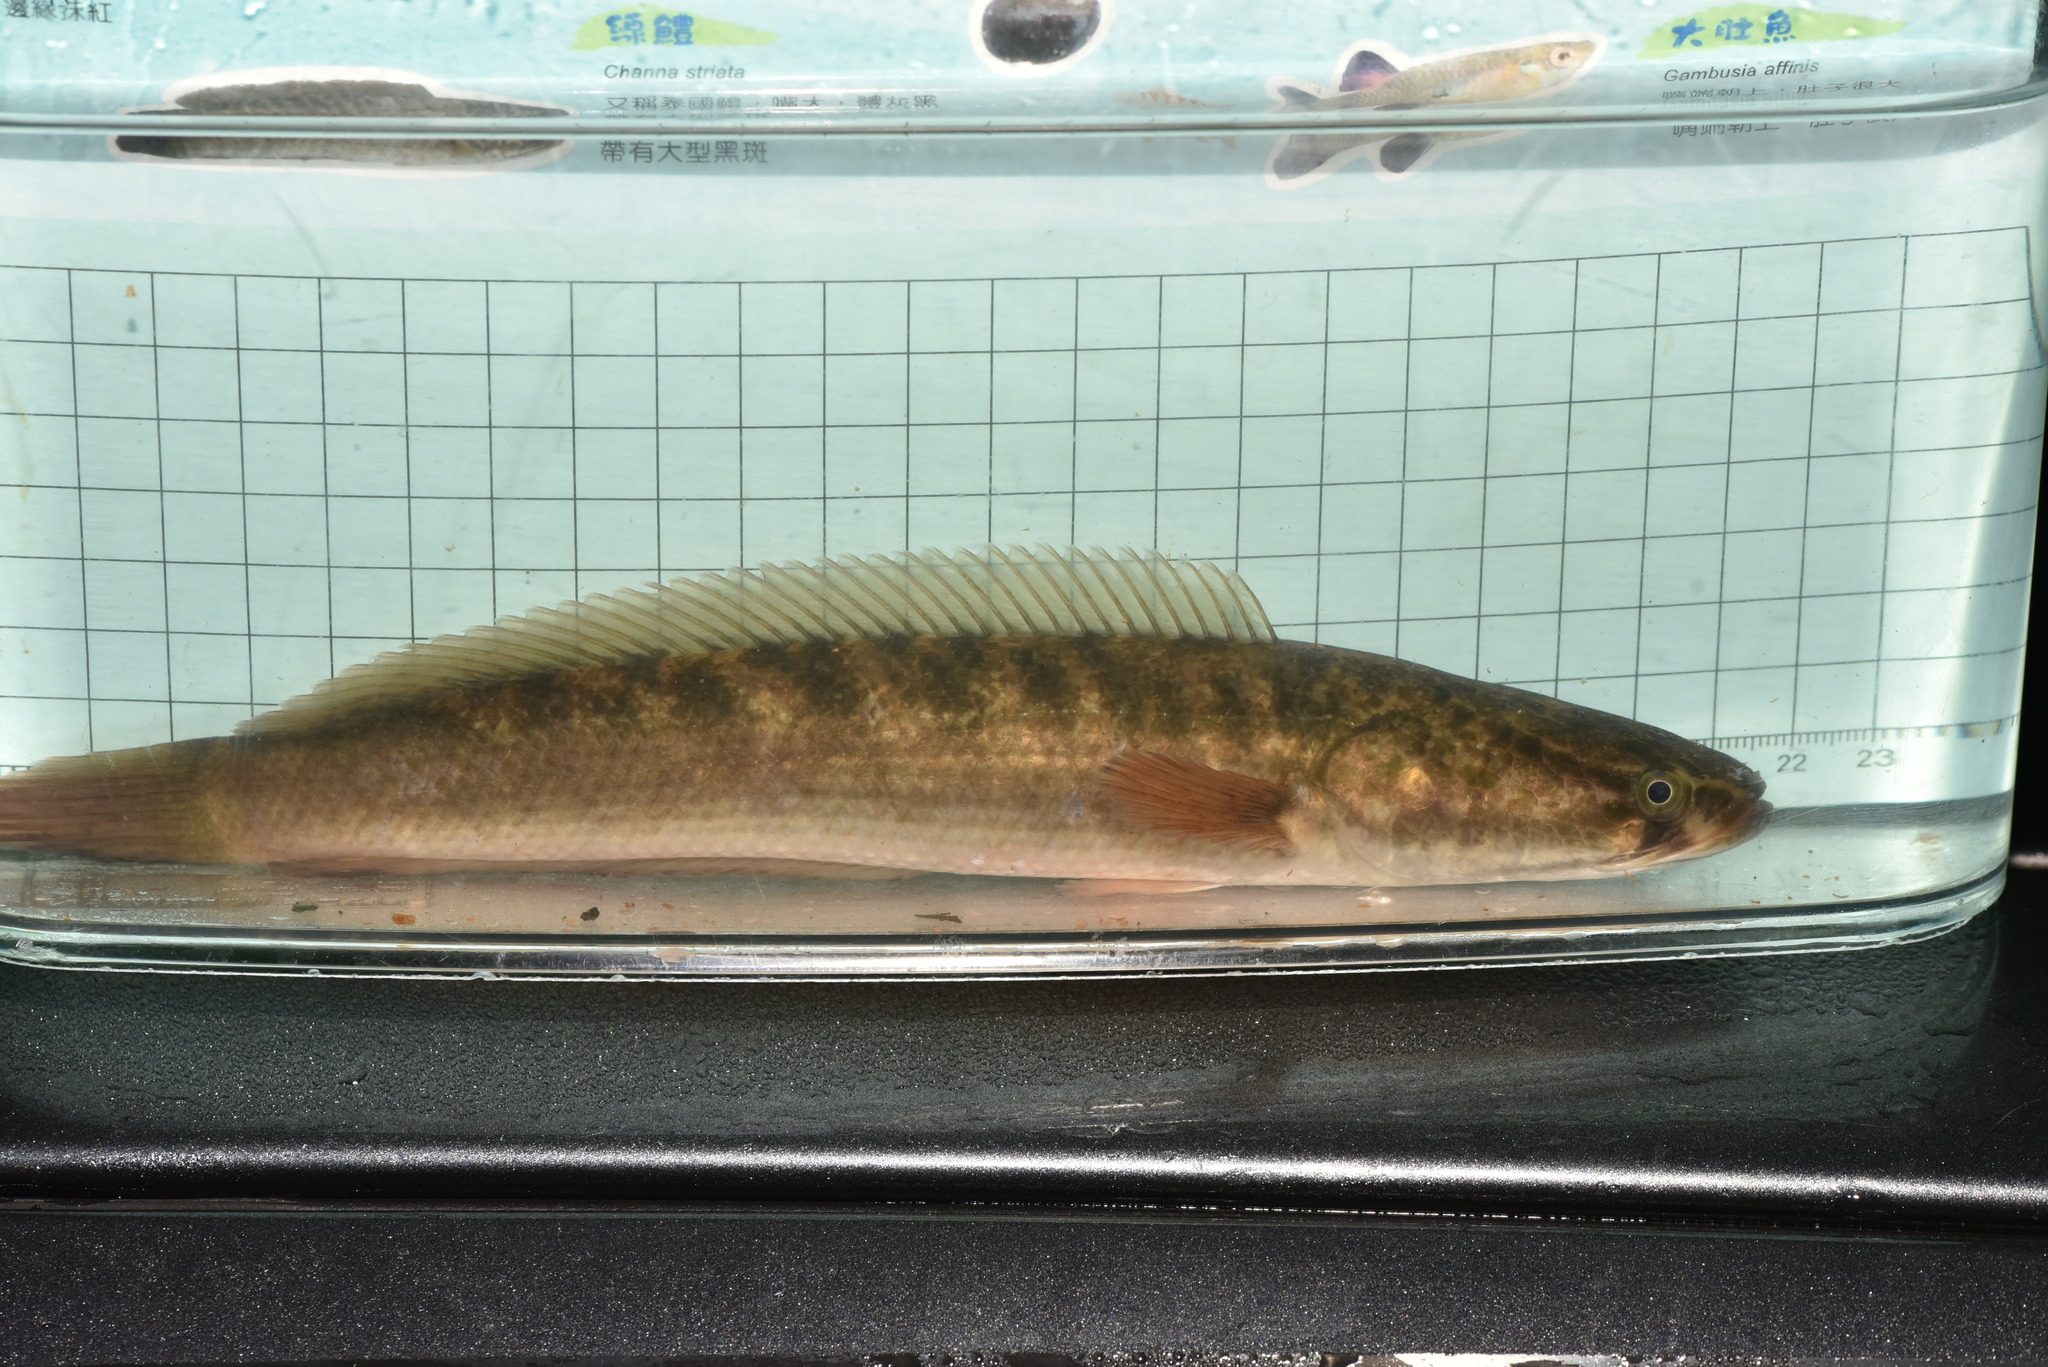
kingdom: Animalia
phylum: Chordata
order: Perciformes
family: Channidae
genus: Channa
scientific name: Channa striata
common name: Striped snakehead
